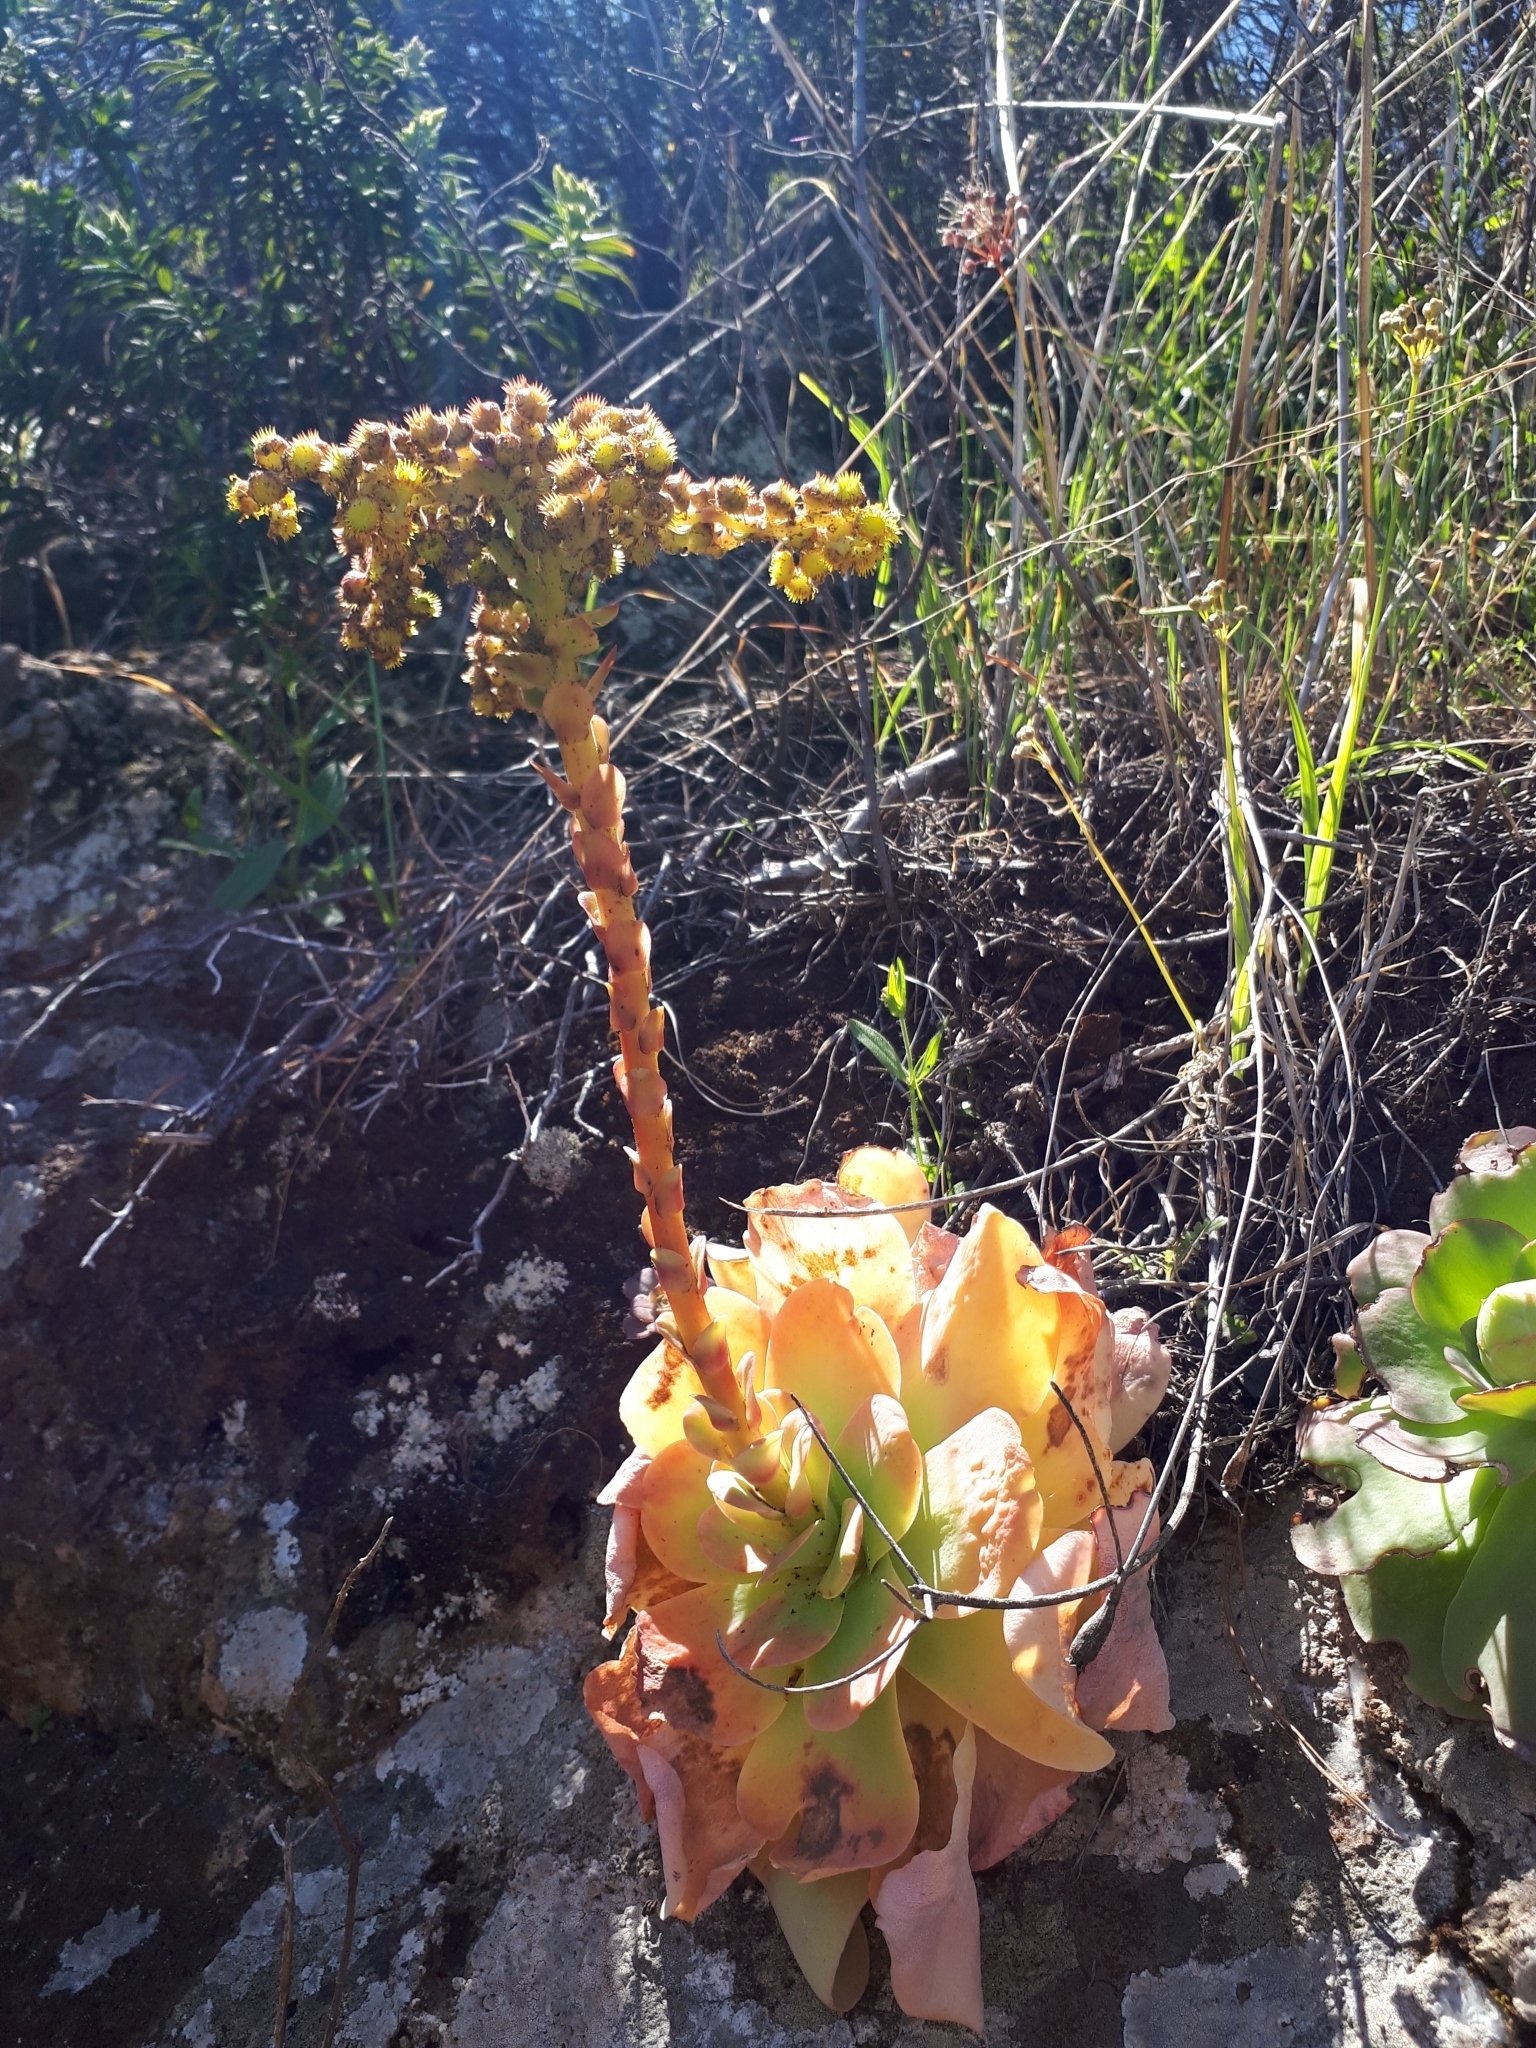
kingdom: Plantae
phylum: Tracheophyta
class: Magnoliopsida
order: Saxifragales
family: Crassulaceae
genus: Aeonium
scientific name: Aeonium diplocyclum
